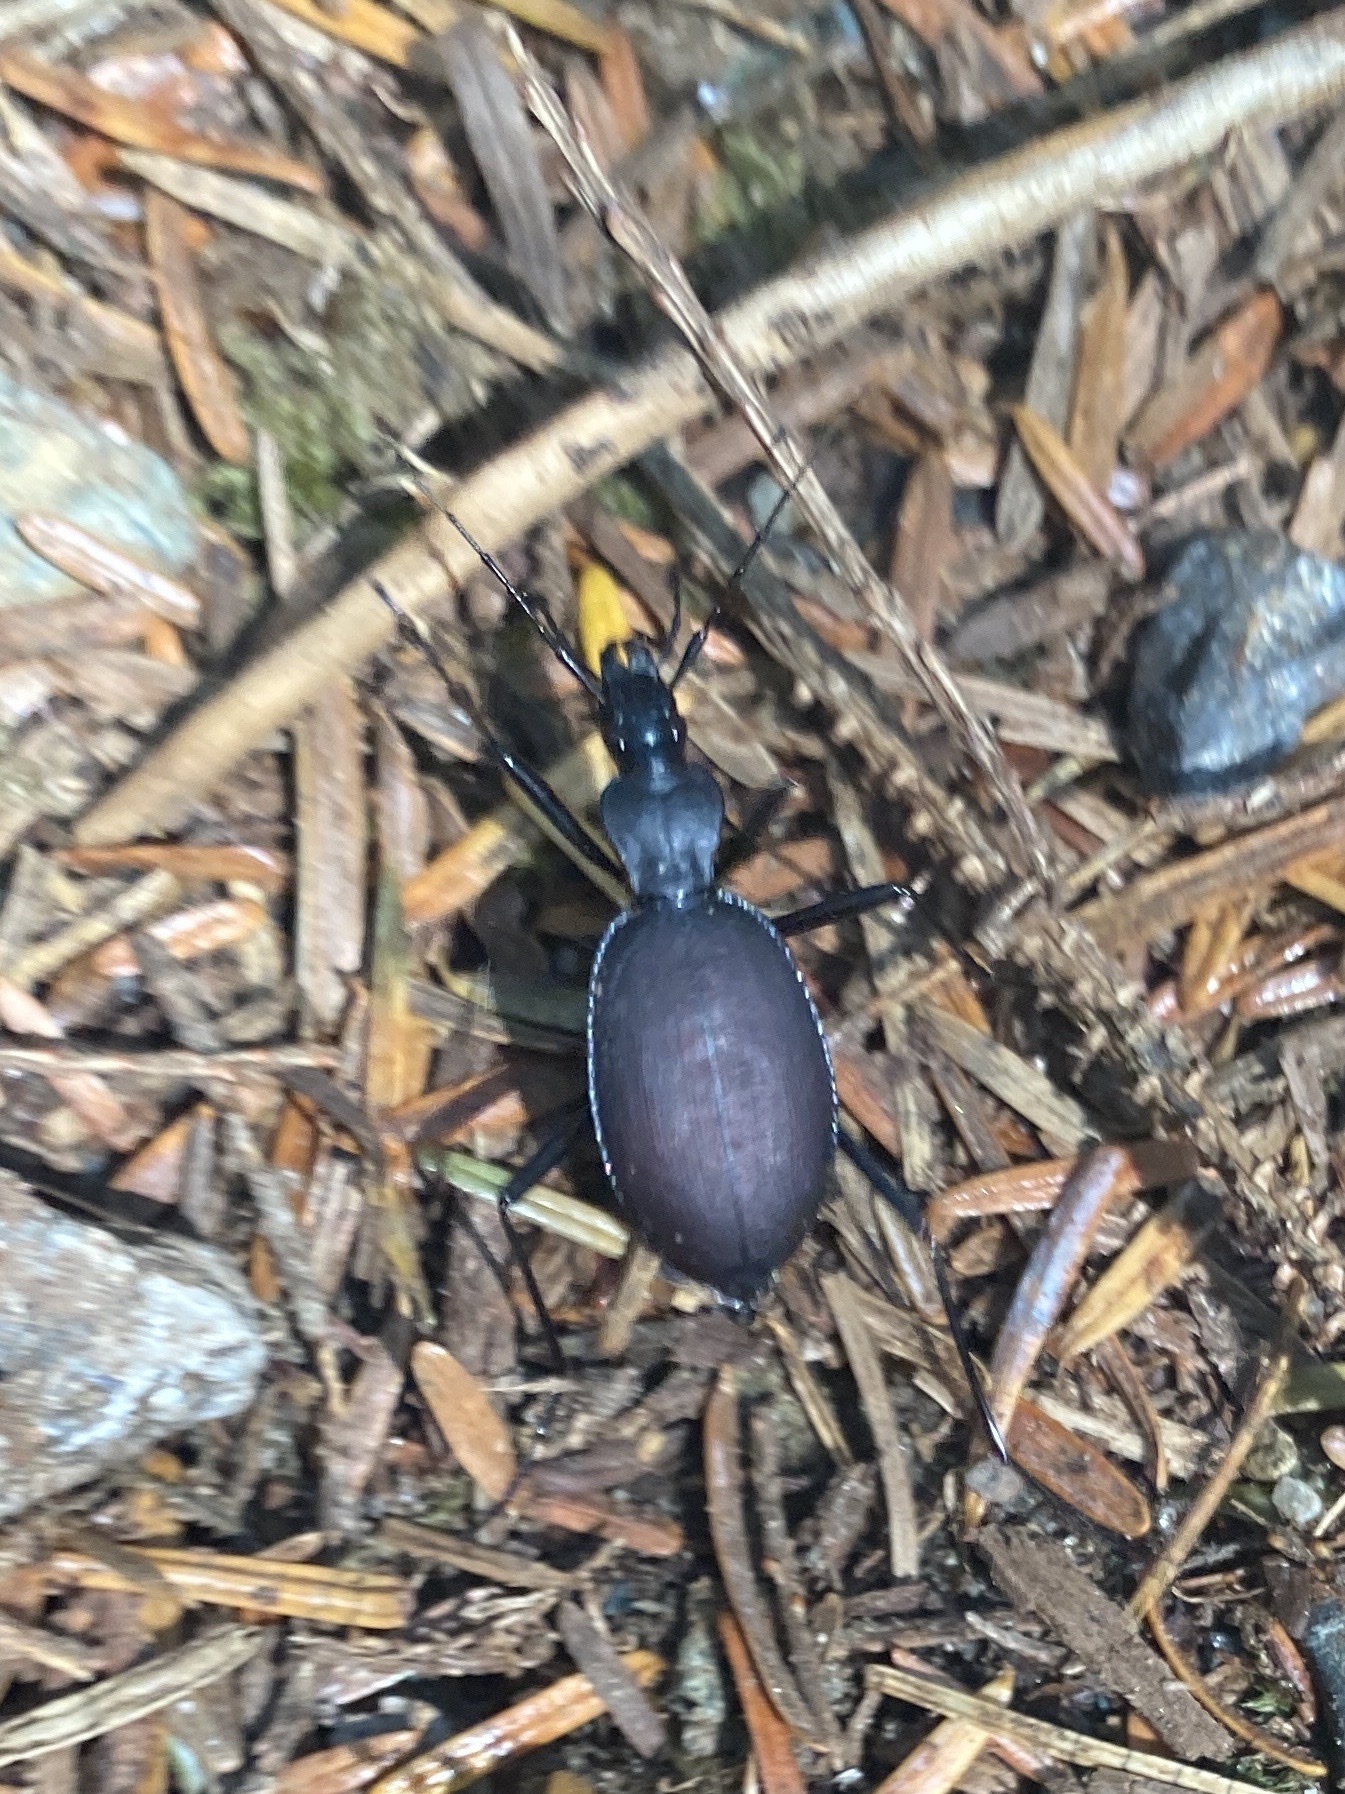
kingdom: Animalia
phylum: Arthropoda
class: Insecta
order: Coleoptera
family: Carabidae
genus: Scaphinotus
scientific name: Scaphinotus angusticollis
